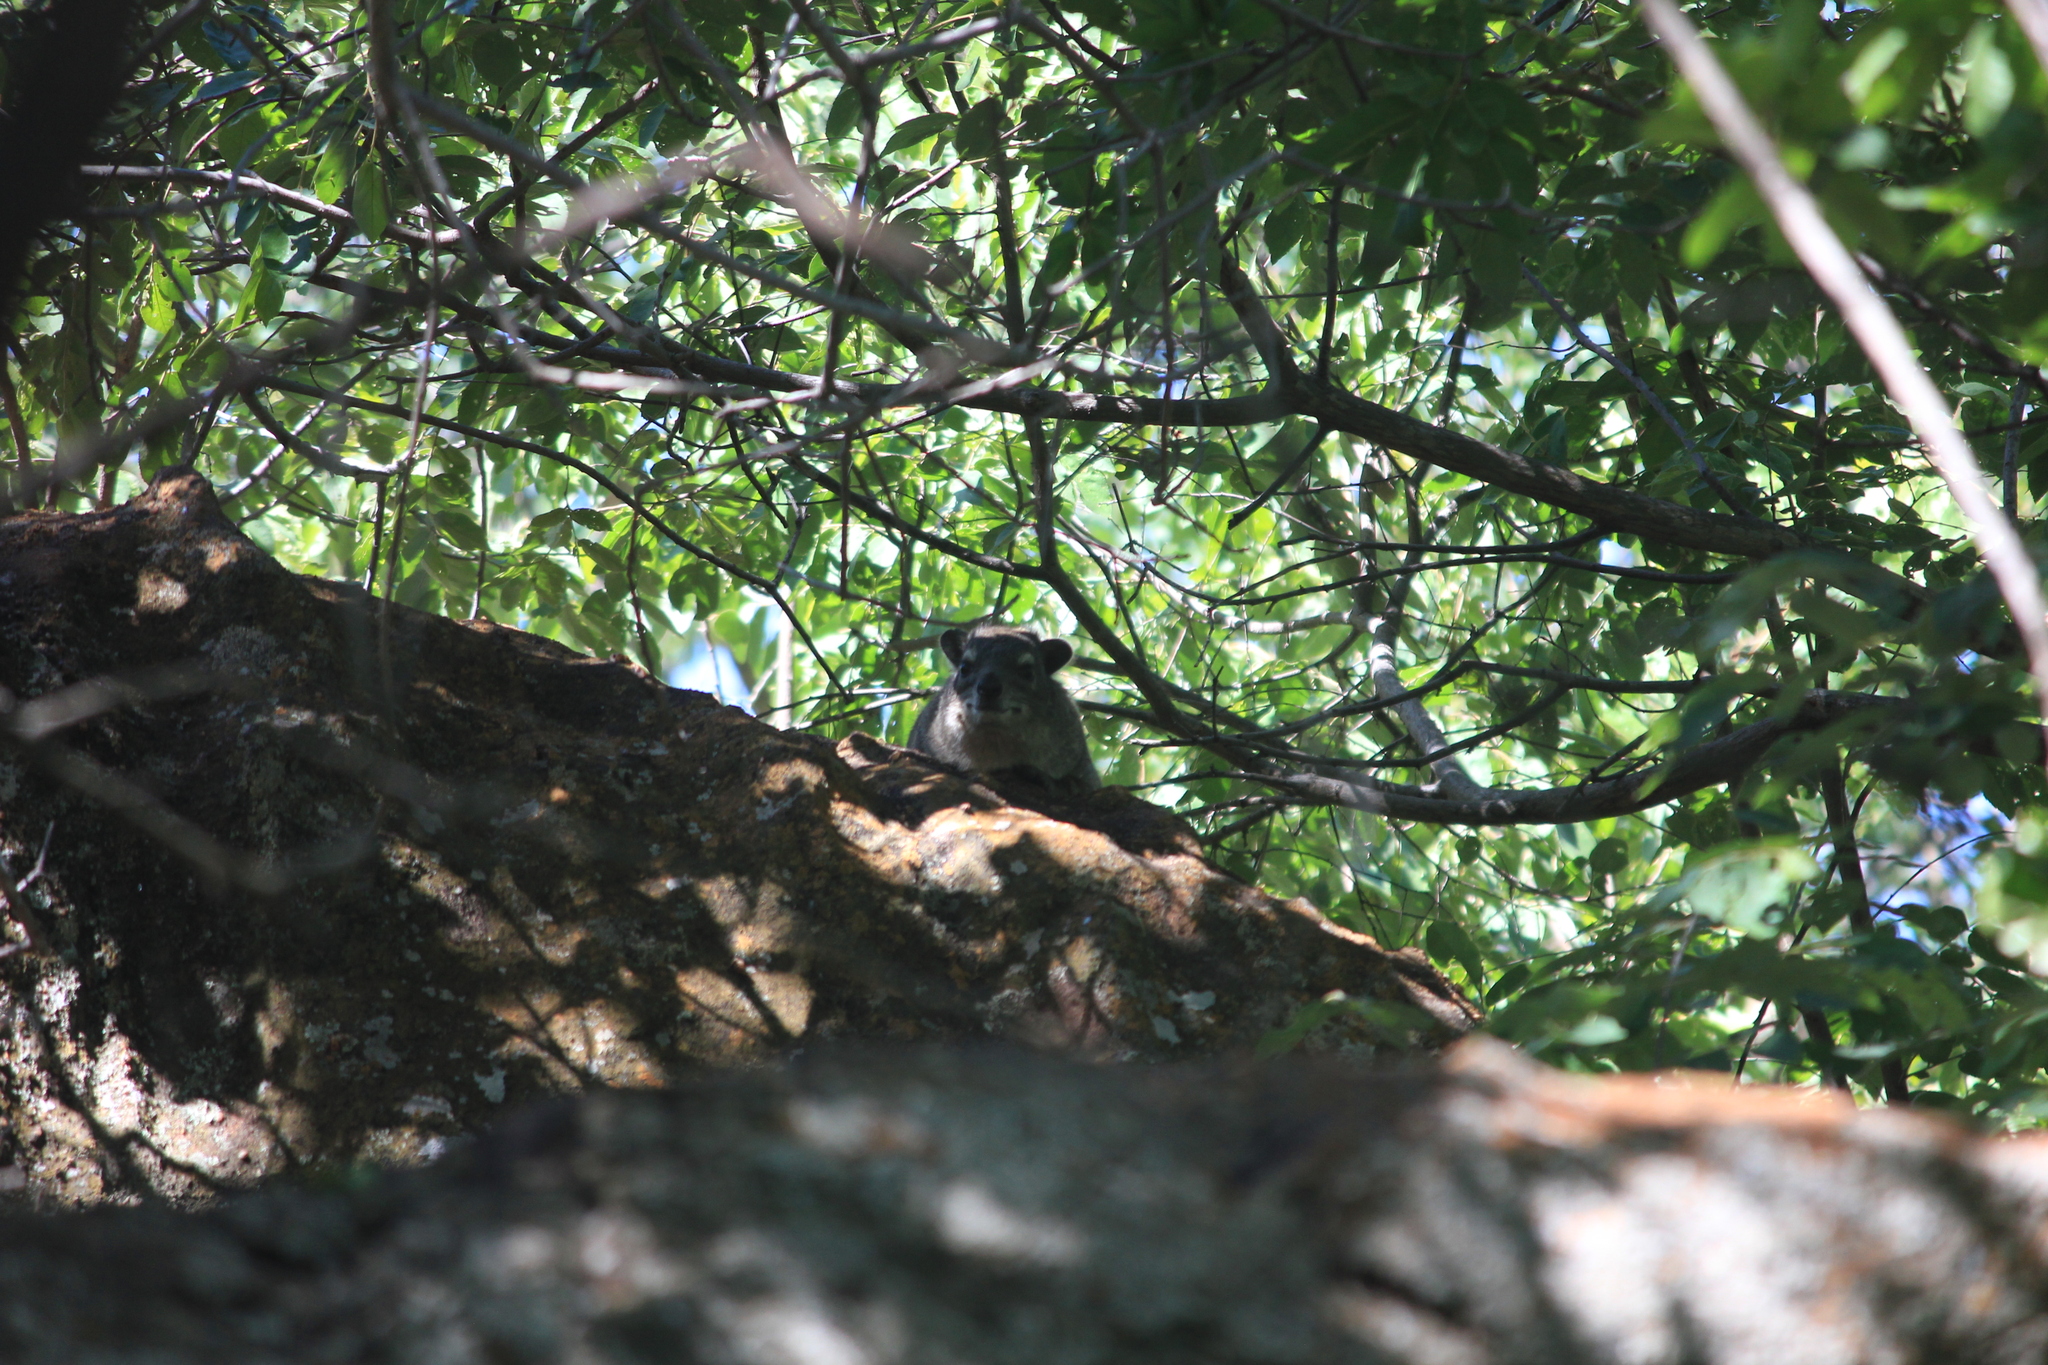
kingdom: Animalia
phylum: Chordata
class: Mammalia
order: Hyracoidea
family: Procaviidae
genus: Heterohyrax
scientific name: Heterohyrax brucei
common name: Bush hyrax
